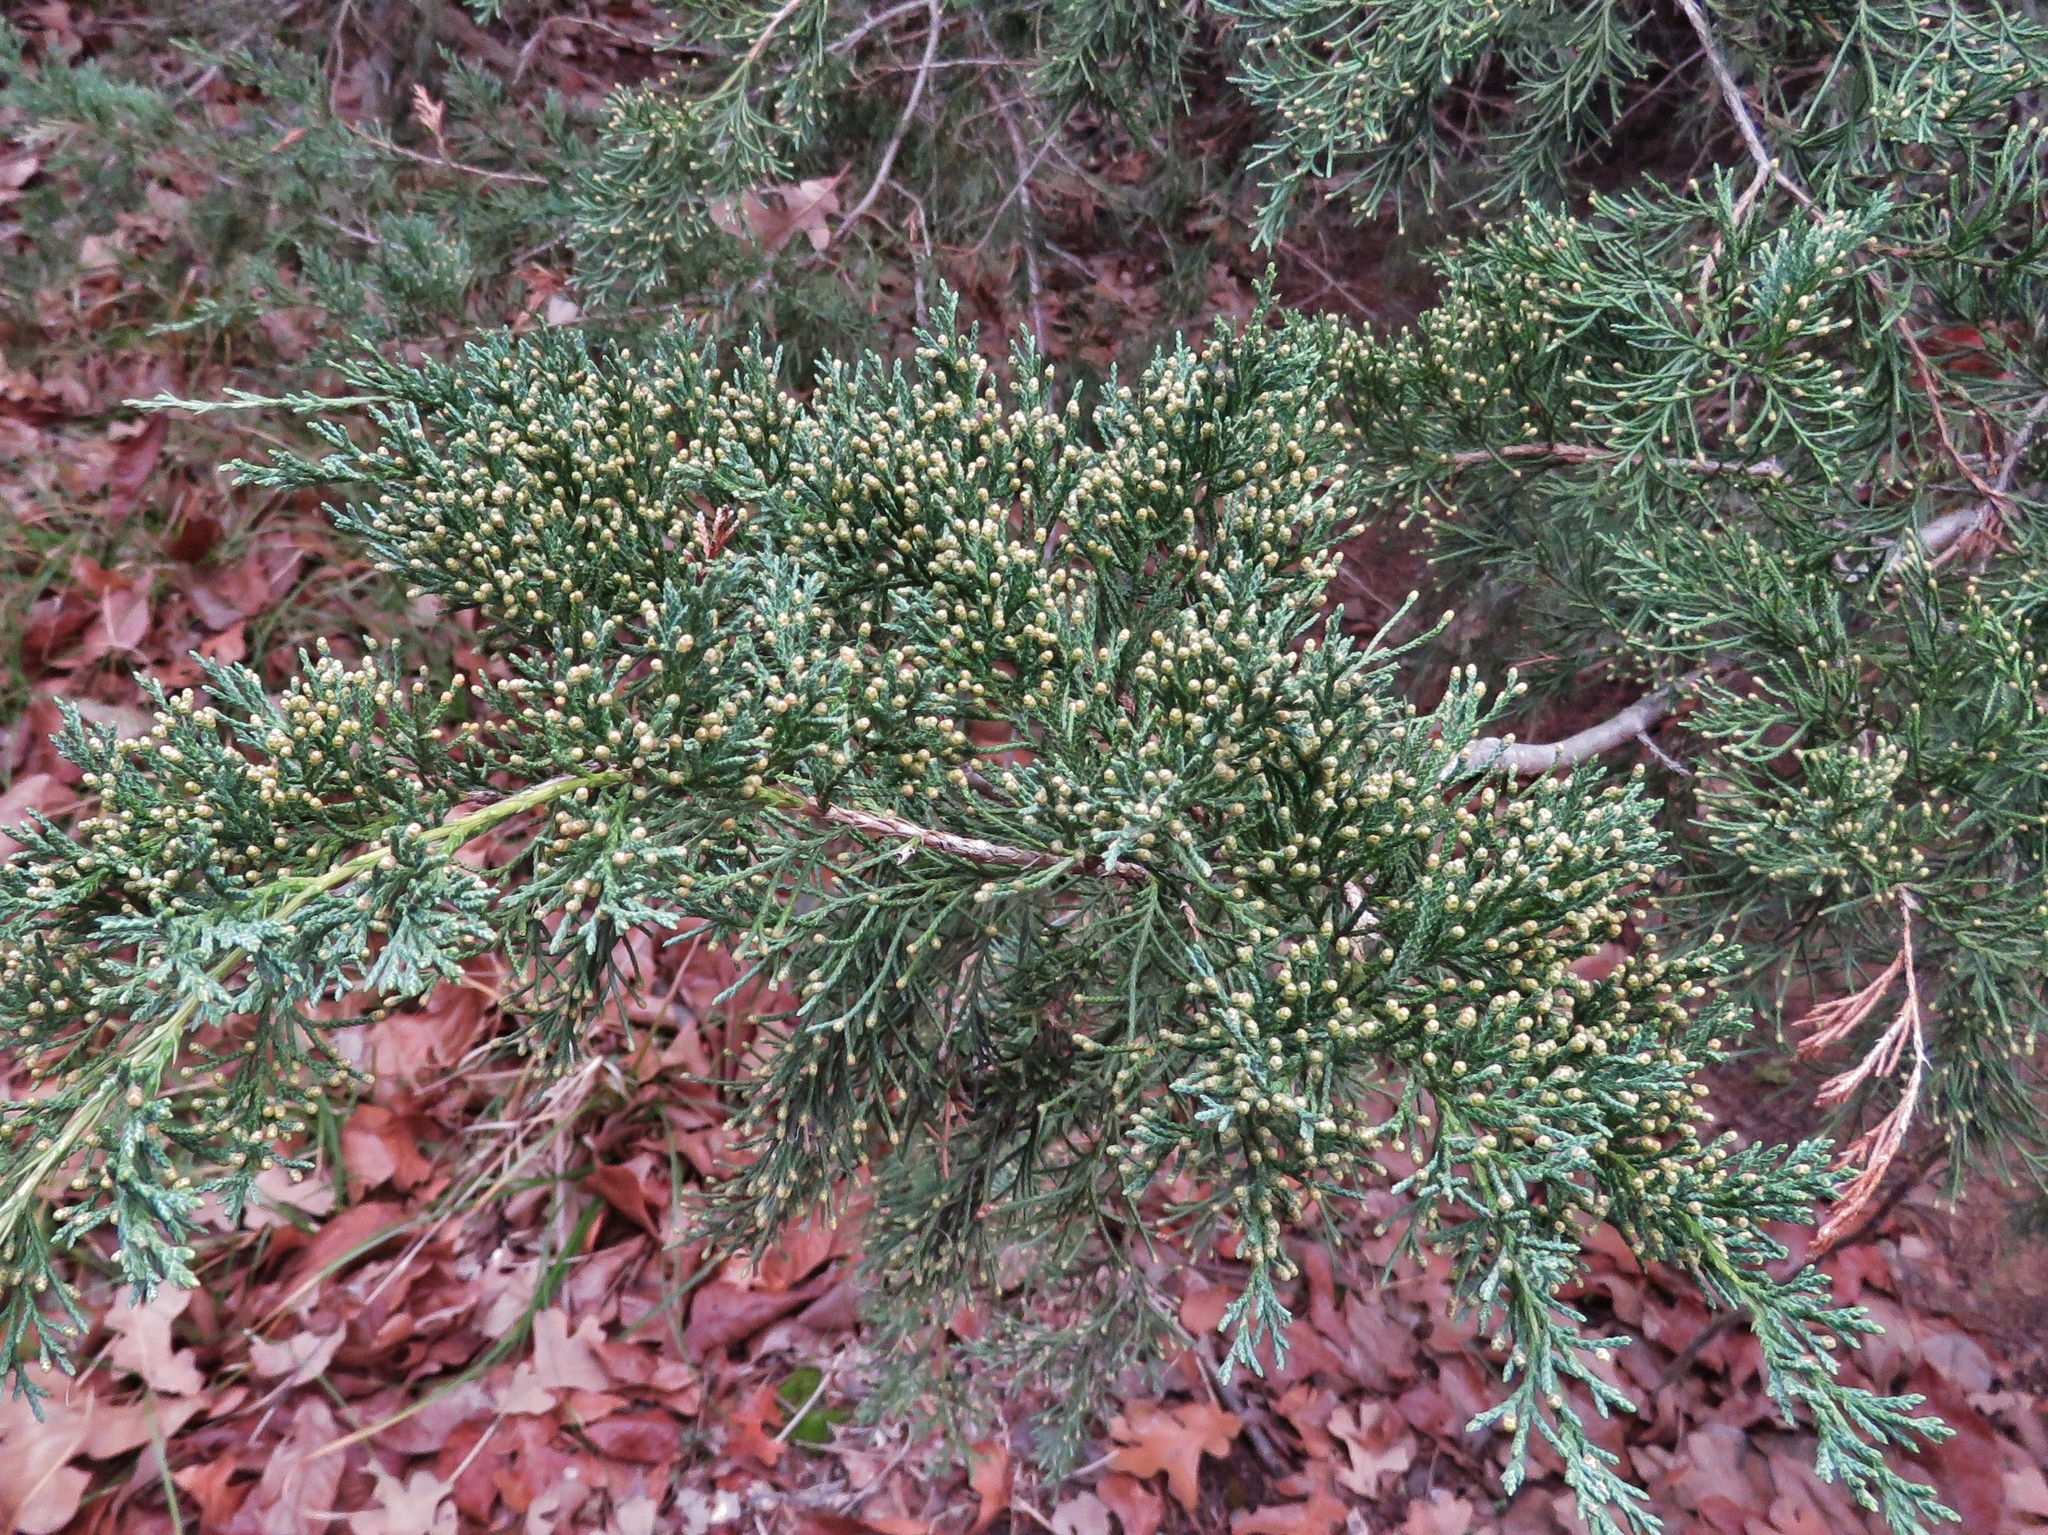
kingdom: Plantae
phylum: Tracheophyta
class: Pinopsida
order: Pinales
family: Cupressaceae
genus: Juniperus
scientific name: Juniperus ashei
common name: Mexican juniper
